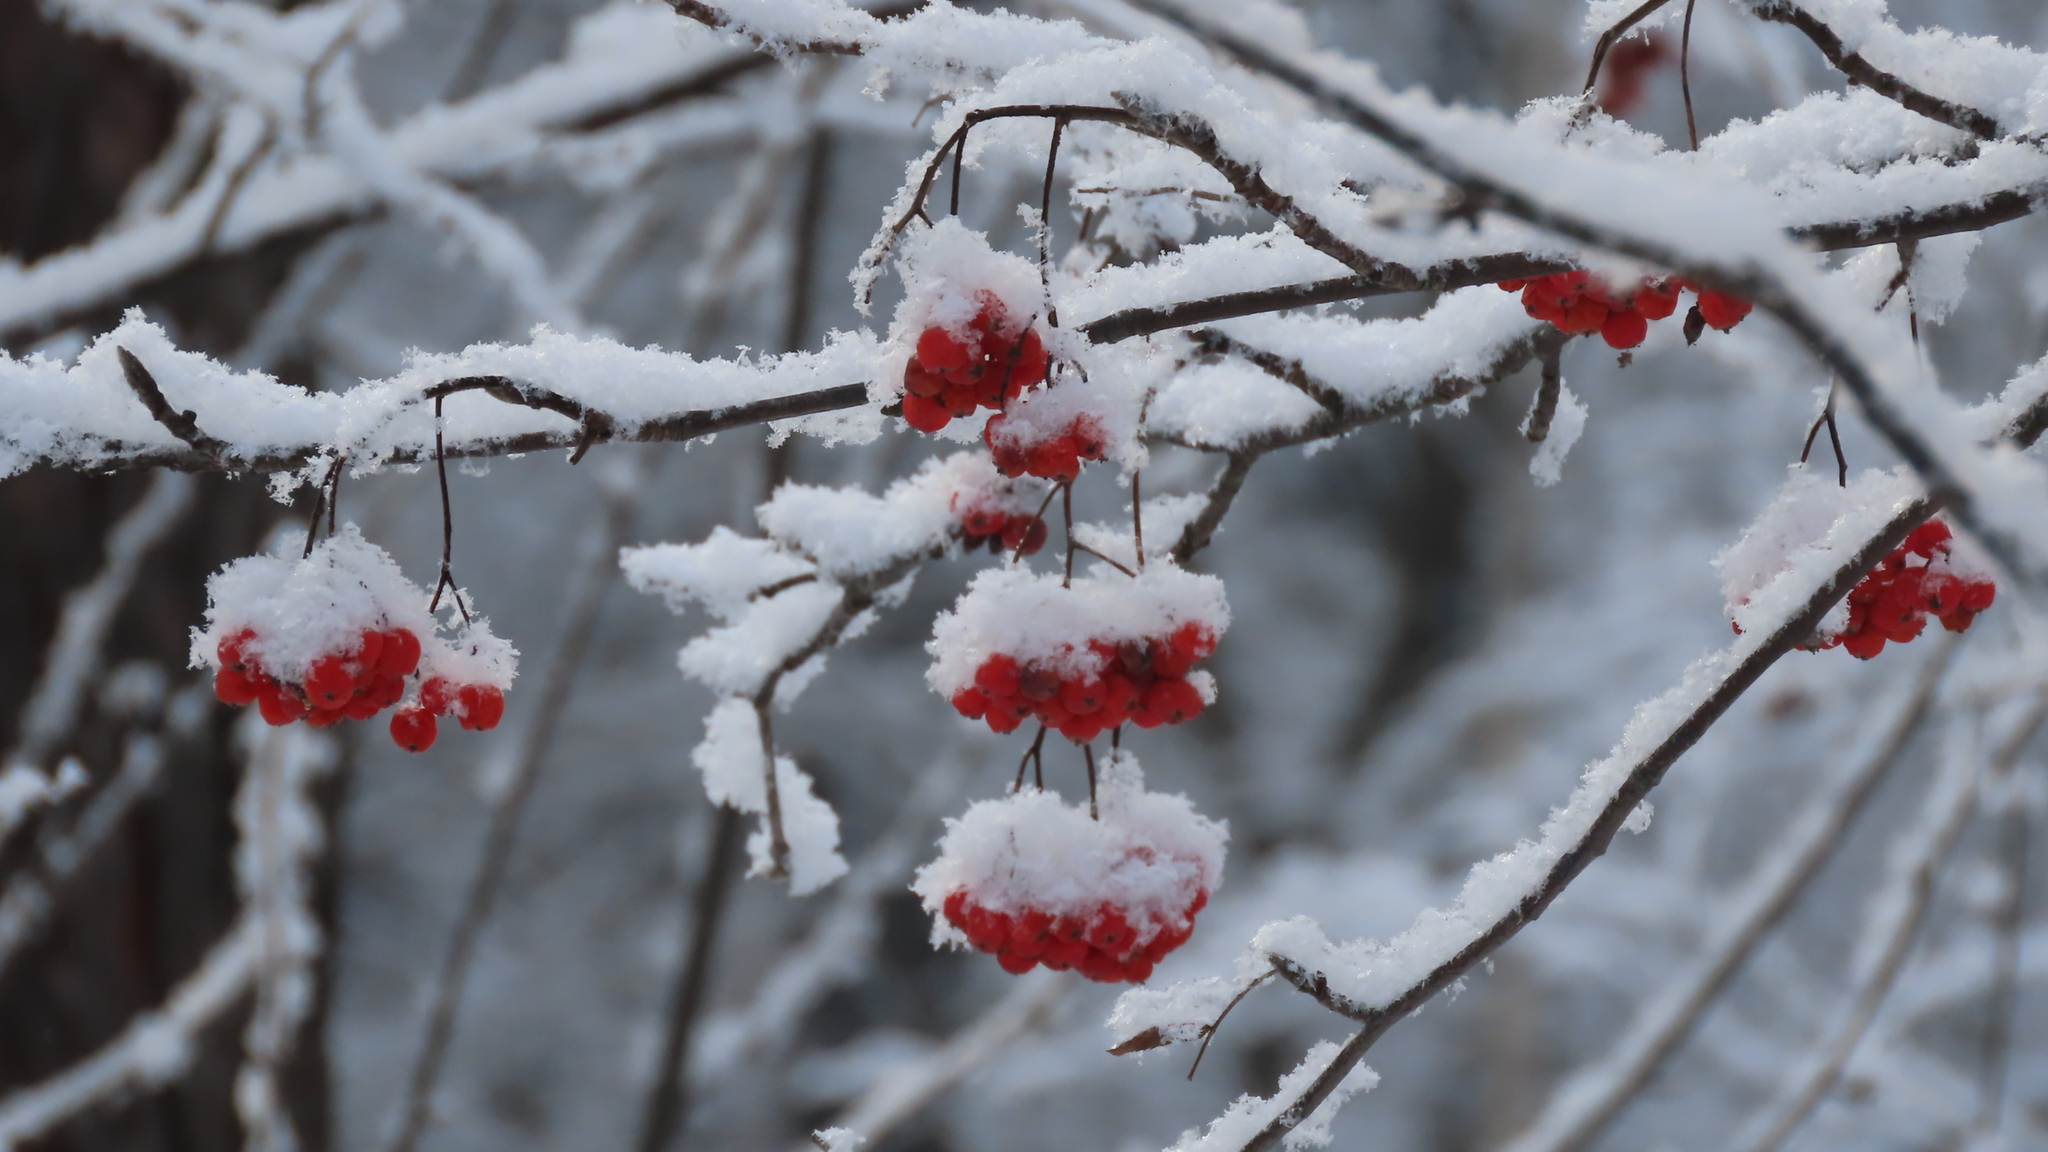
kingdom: Plantae
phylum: Tracheophyta
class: Magnoliopsida
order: Dipsacales
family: Viburnaceae
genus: Viburnum
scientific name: Viburnum opulus
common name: Guelder-rose
